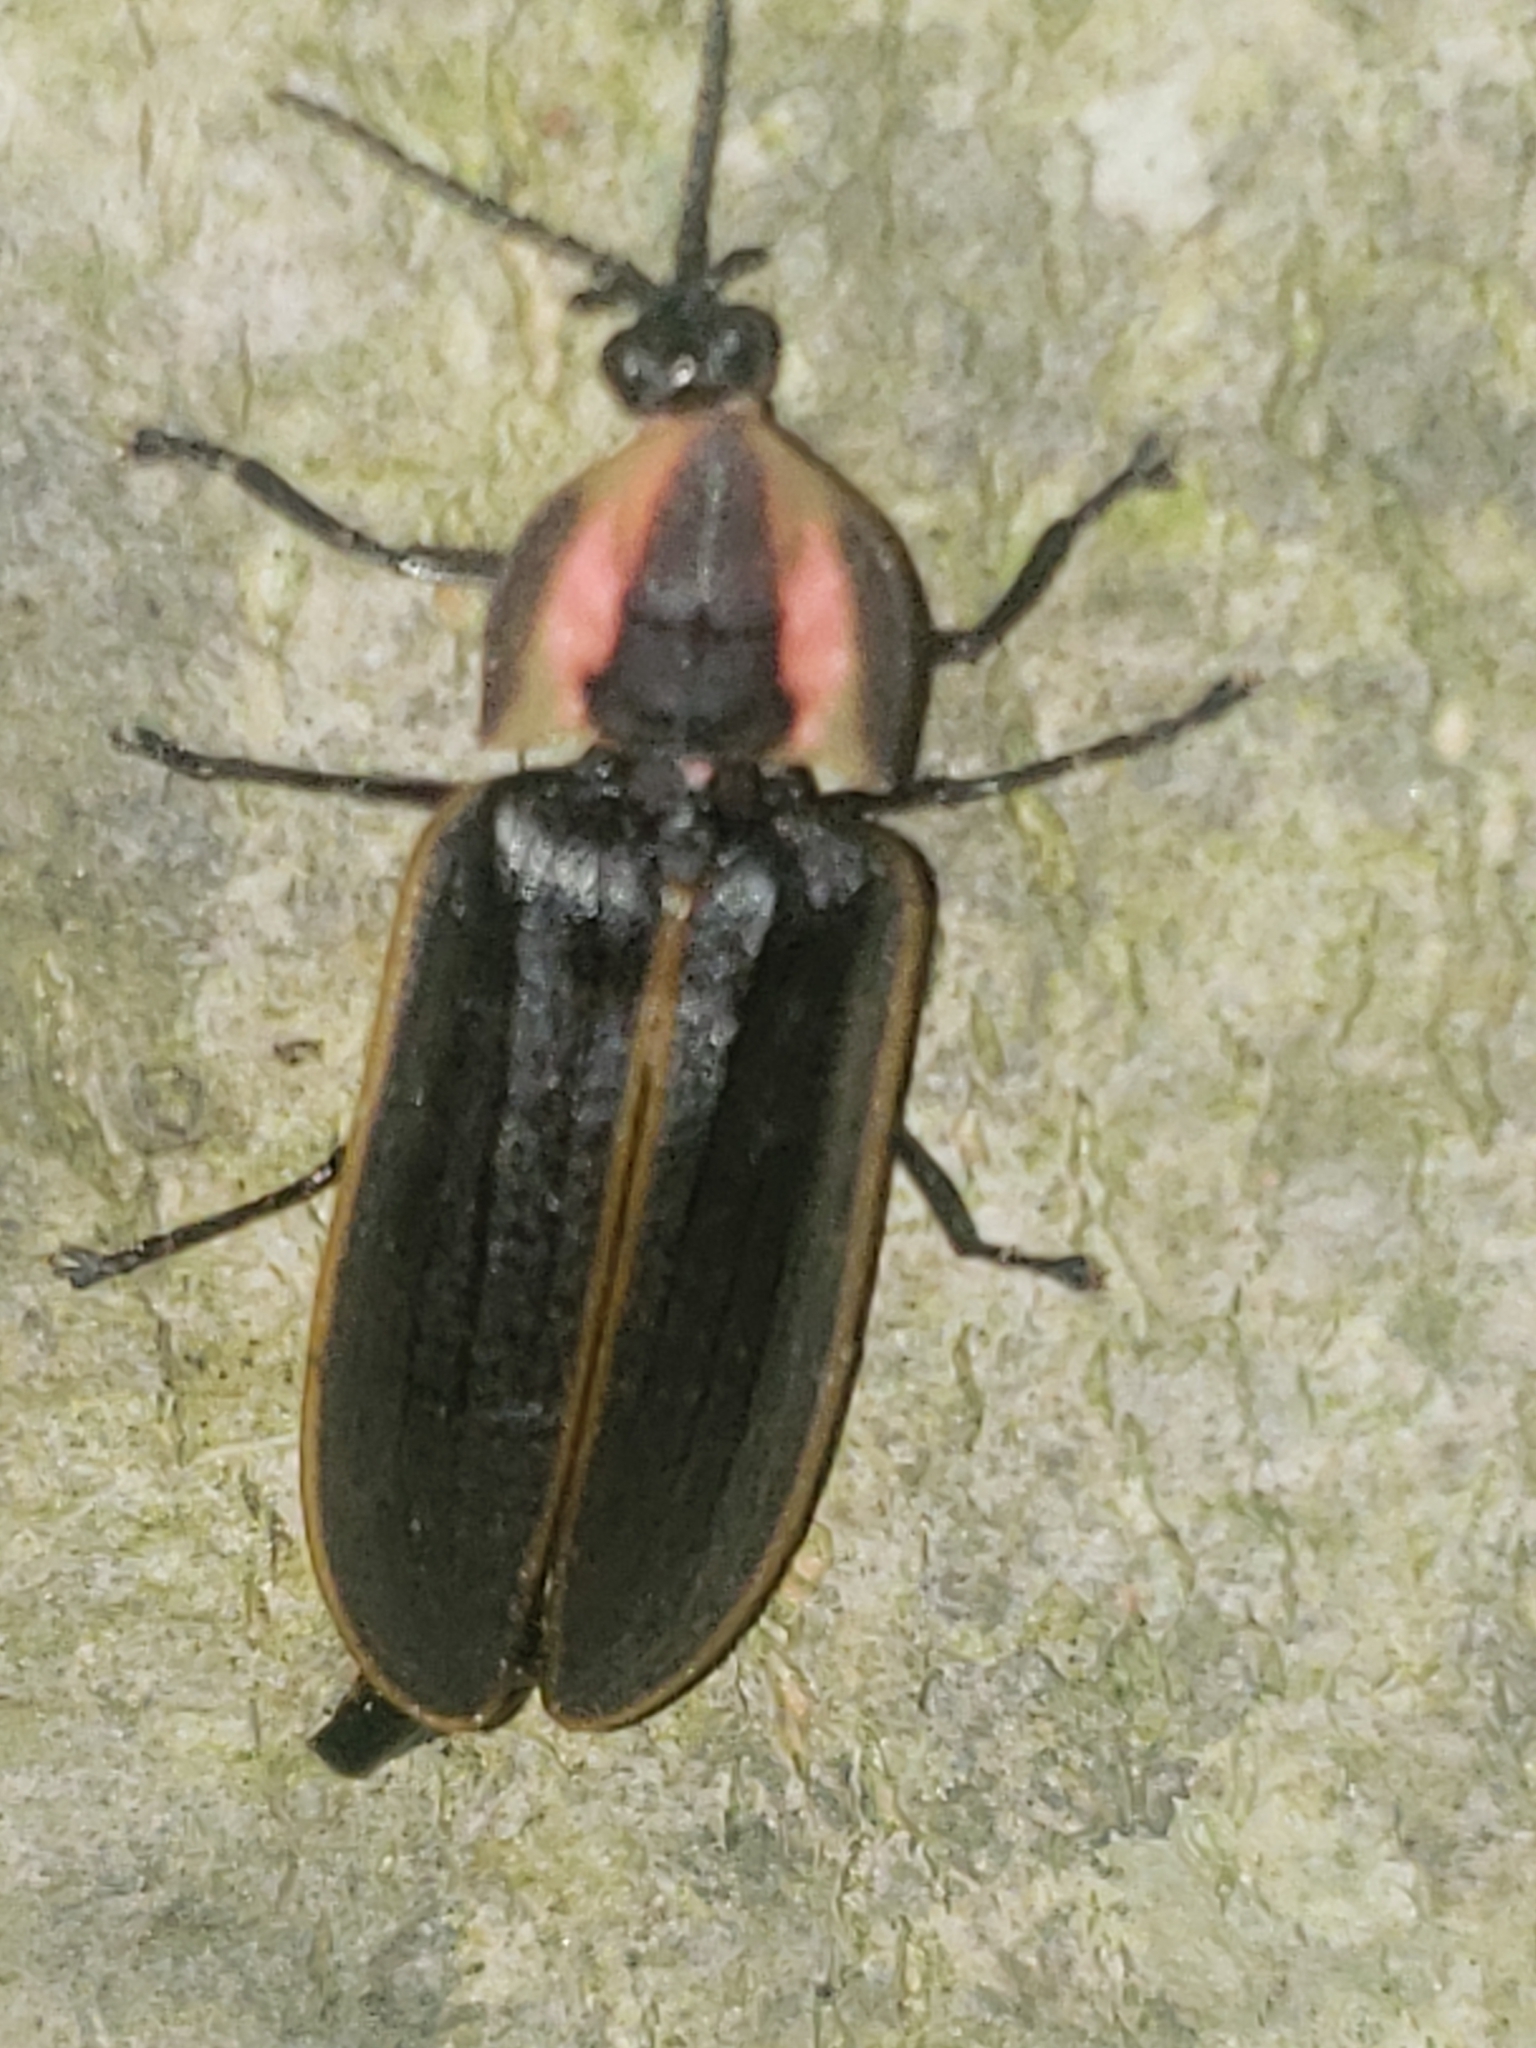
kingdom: Animalia
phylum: Arthropoda
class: Insecta
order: Coleoptera
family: Lampyridae
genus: Pyractomena
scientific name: Pyractomena borealis
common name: Northern firefly
